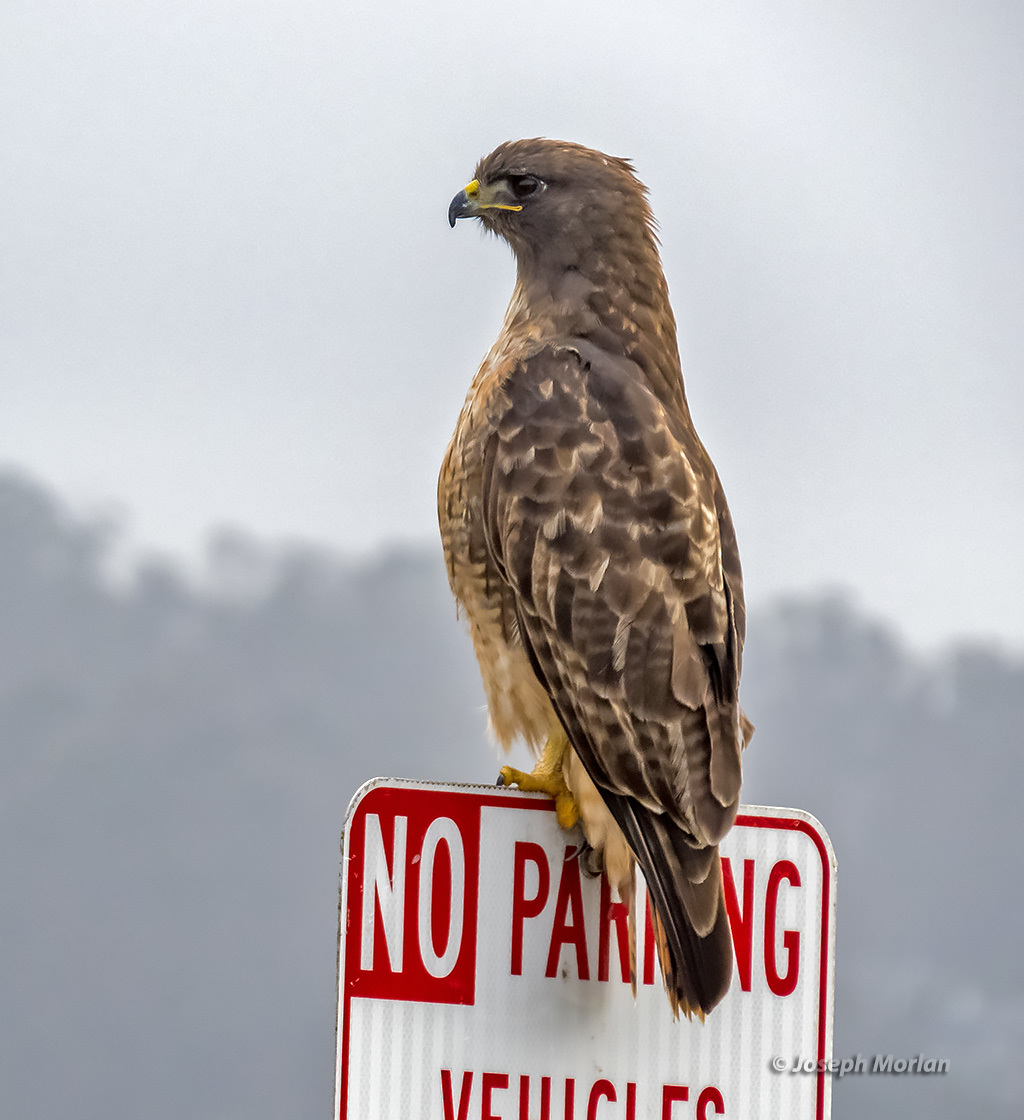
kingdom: Animalia
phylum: Chordata
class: Aves
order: Accipitriformes
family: Accipitridae
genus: Buteo
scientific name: Buteo jamaicensis
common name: Red-tailed hawk
